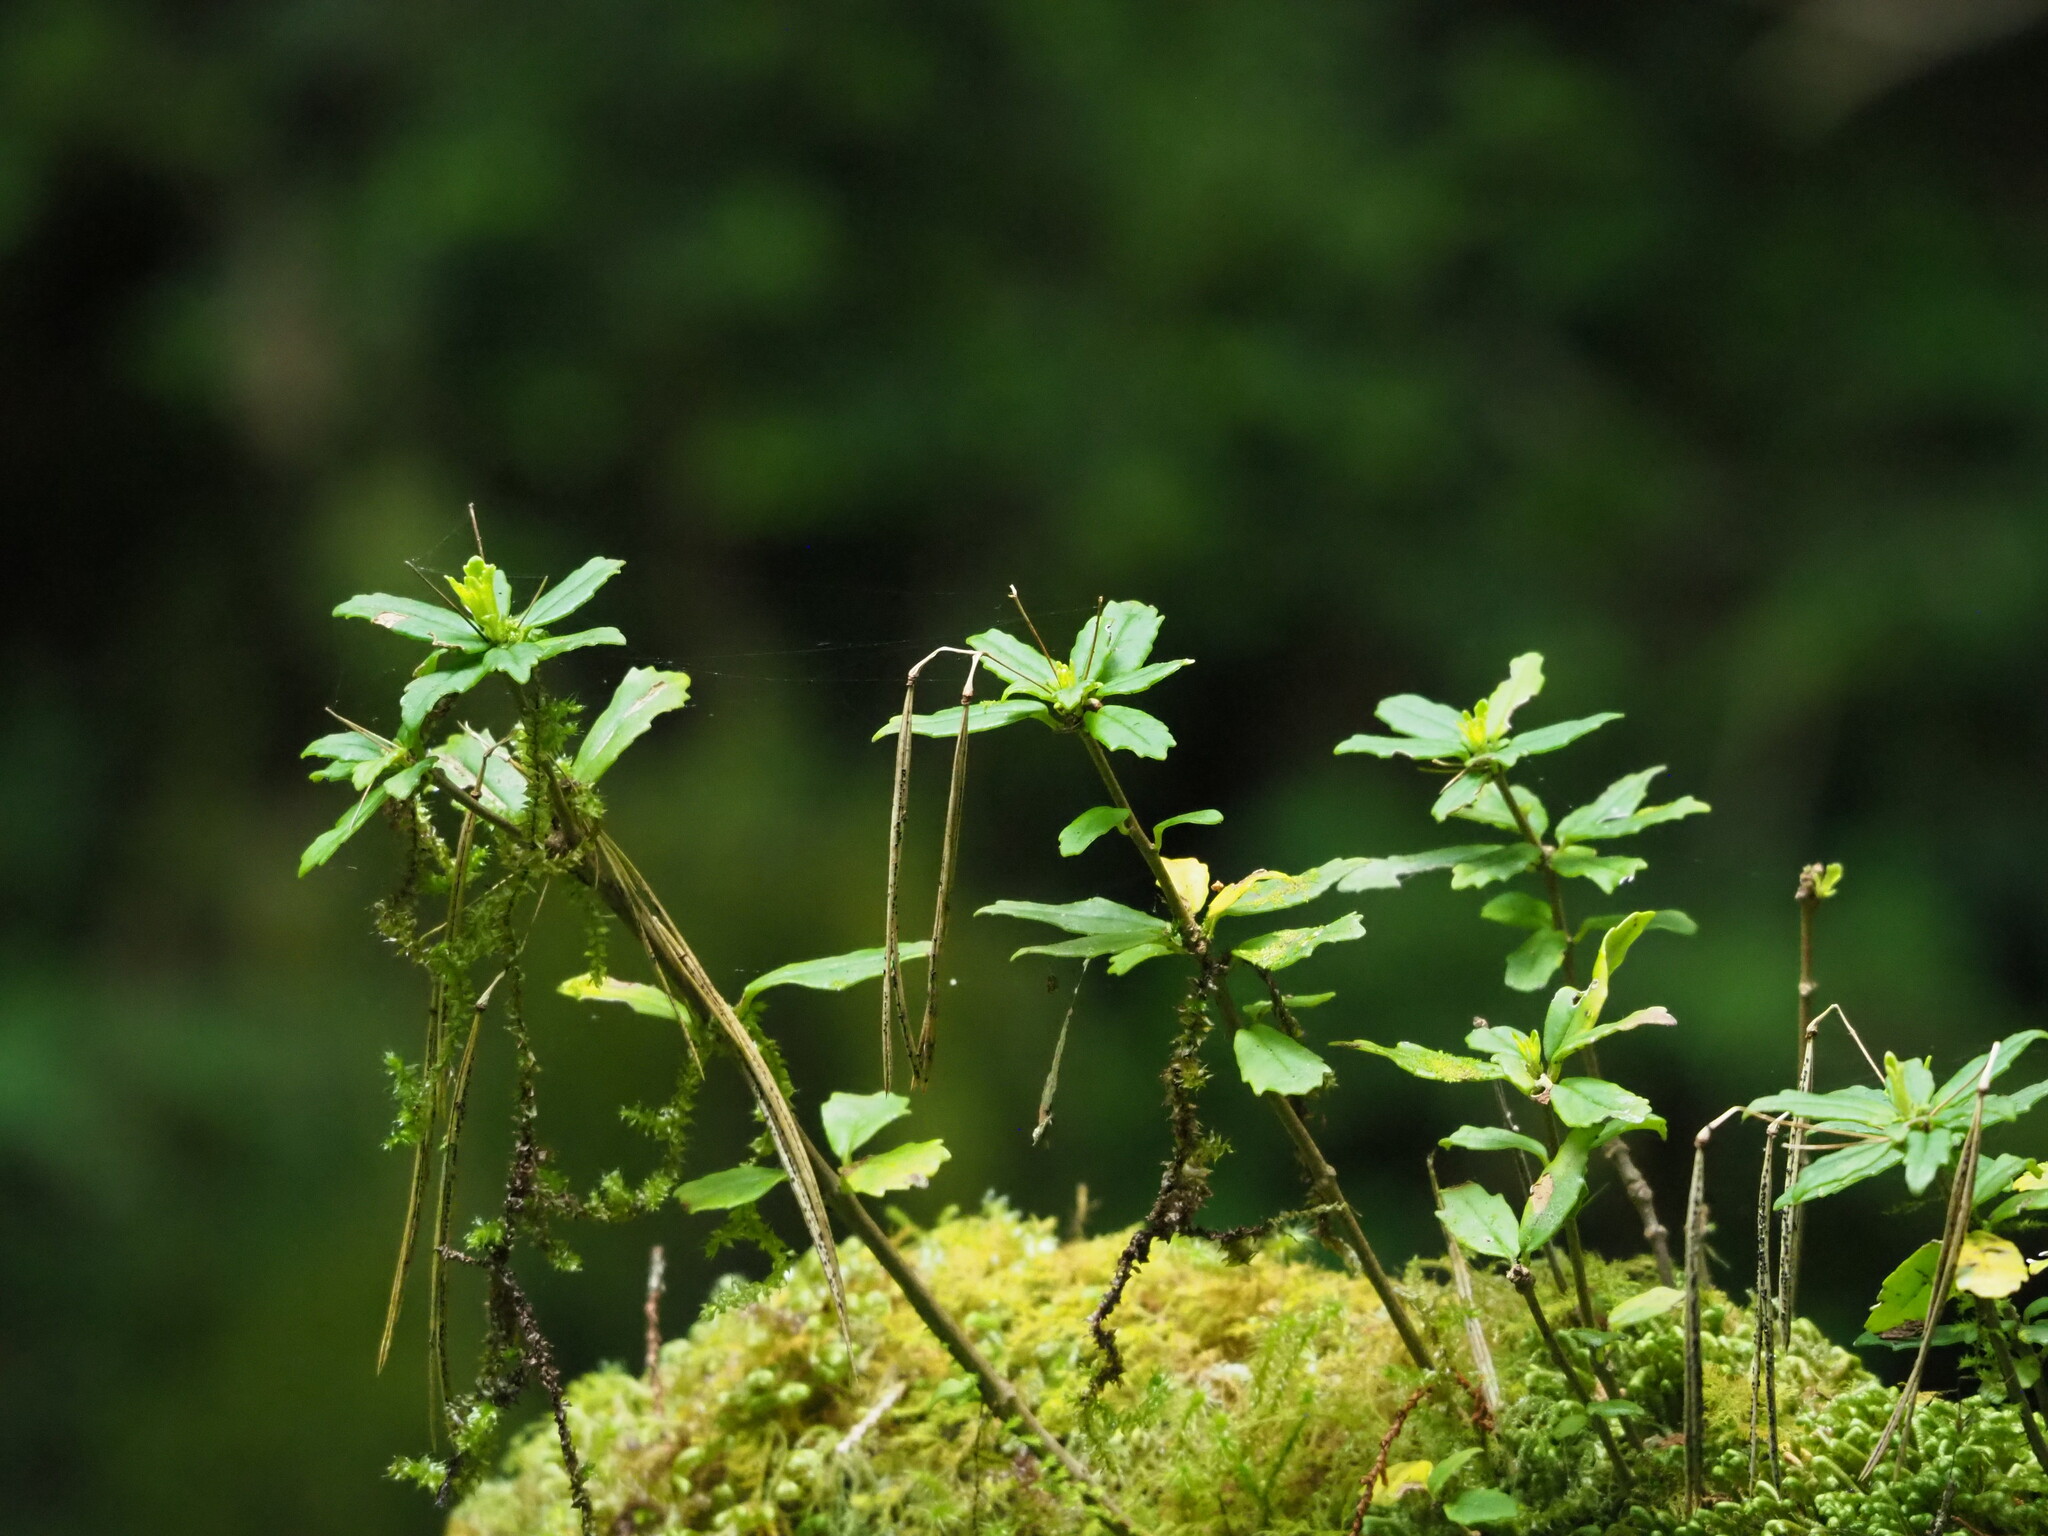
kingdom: Plantae
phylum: Tracheophyta
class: Magnoliopsida
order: Lamiales
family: Gesneriaceae
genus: Lysionotus
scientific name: Lysionotus pauciflorus
